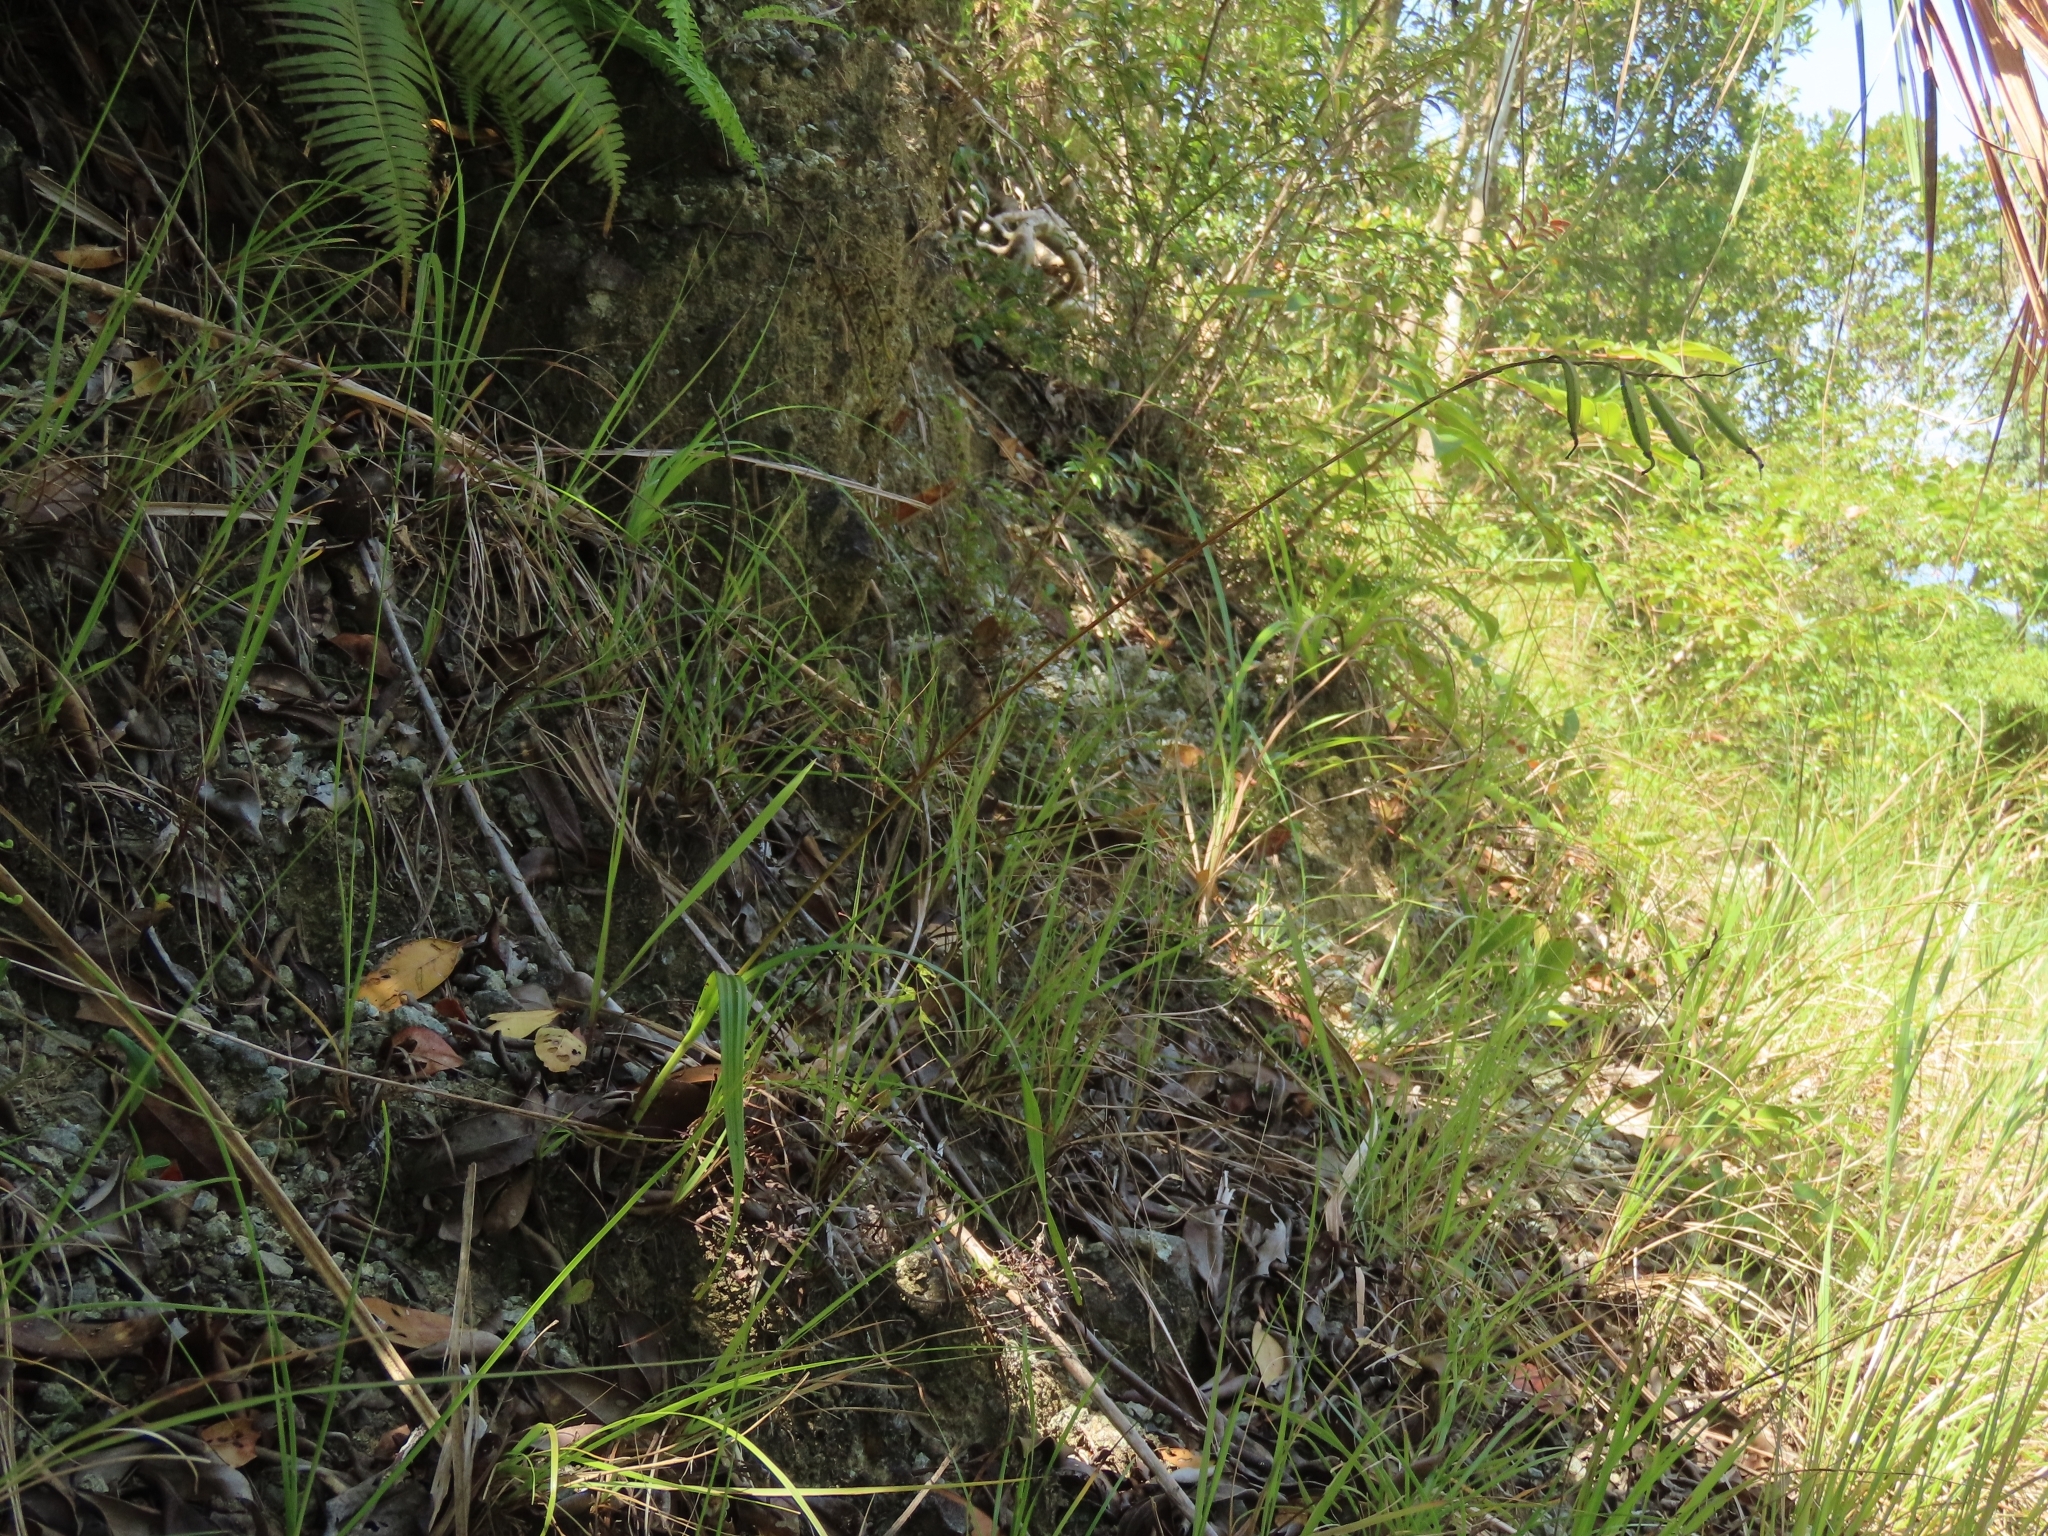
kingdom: Plantae
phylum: Tracheophyta
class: Liliopsida
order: Asparagales
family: Orchidaceae
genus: Bletilla
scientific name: Bletilla formosana
